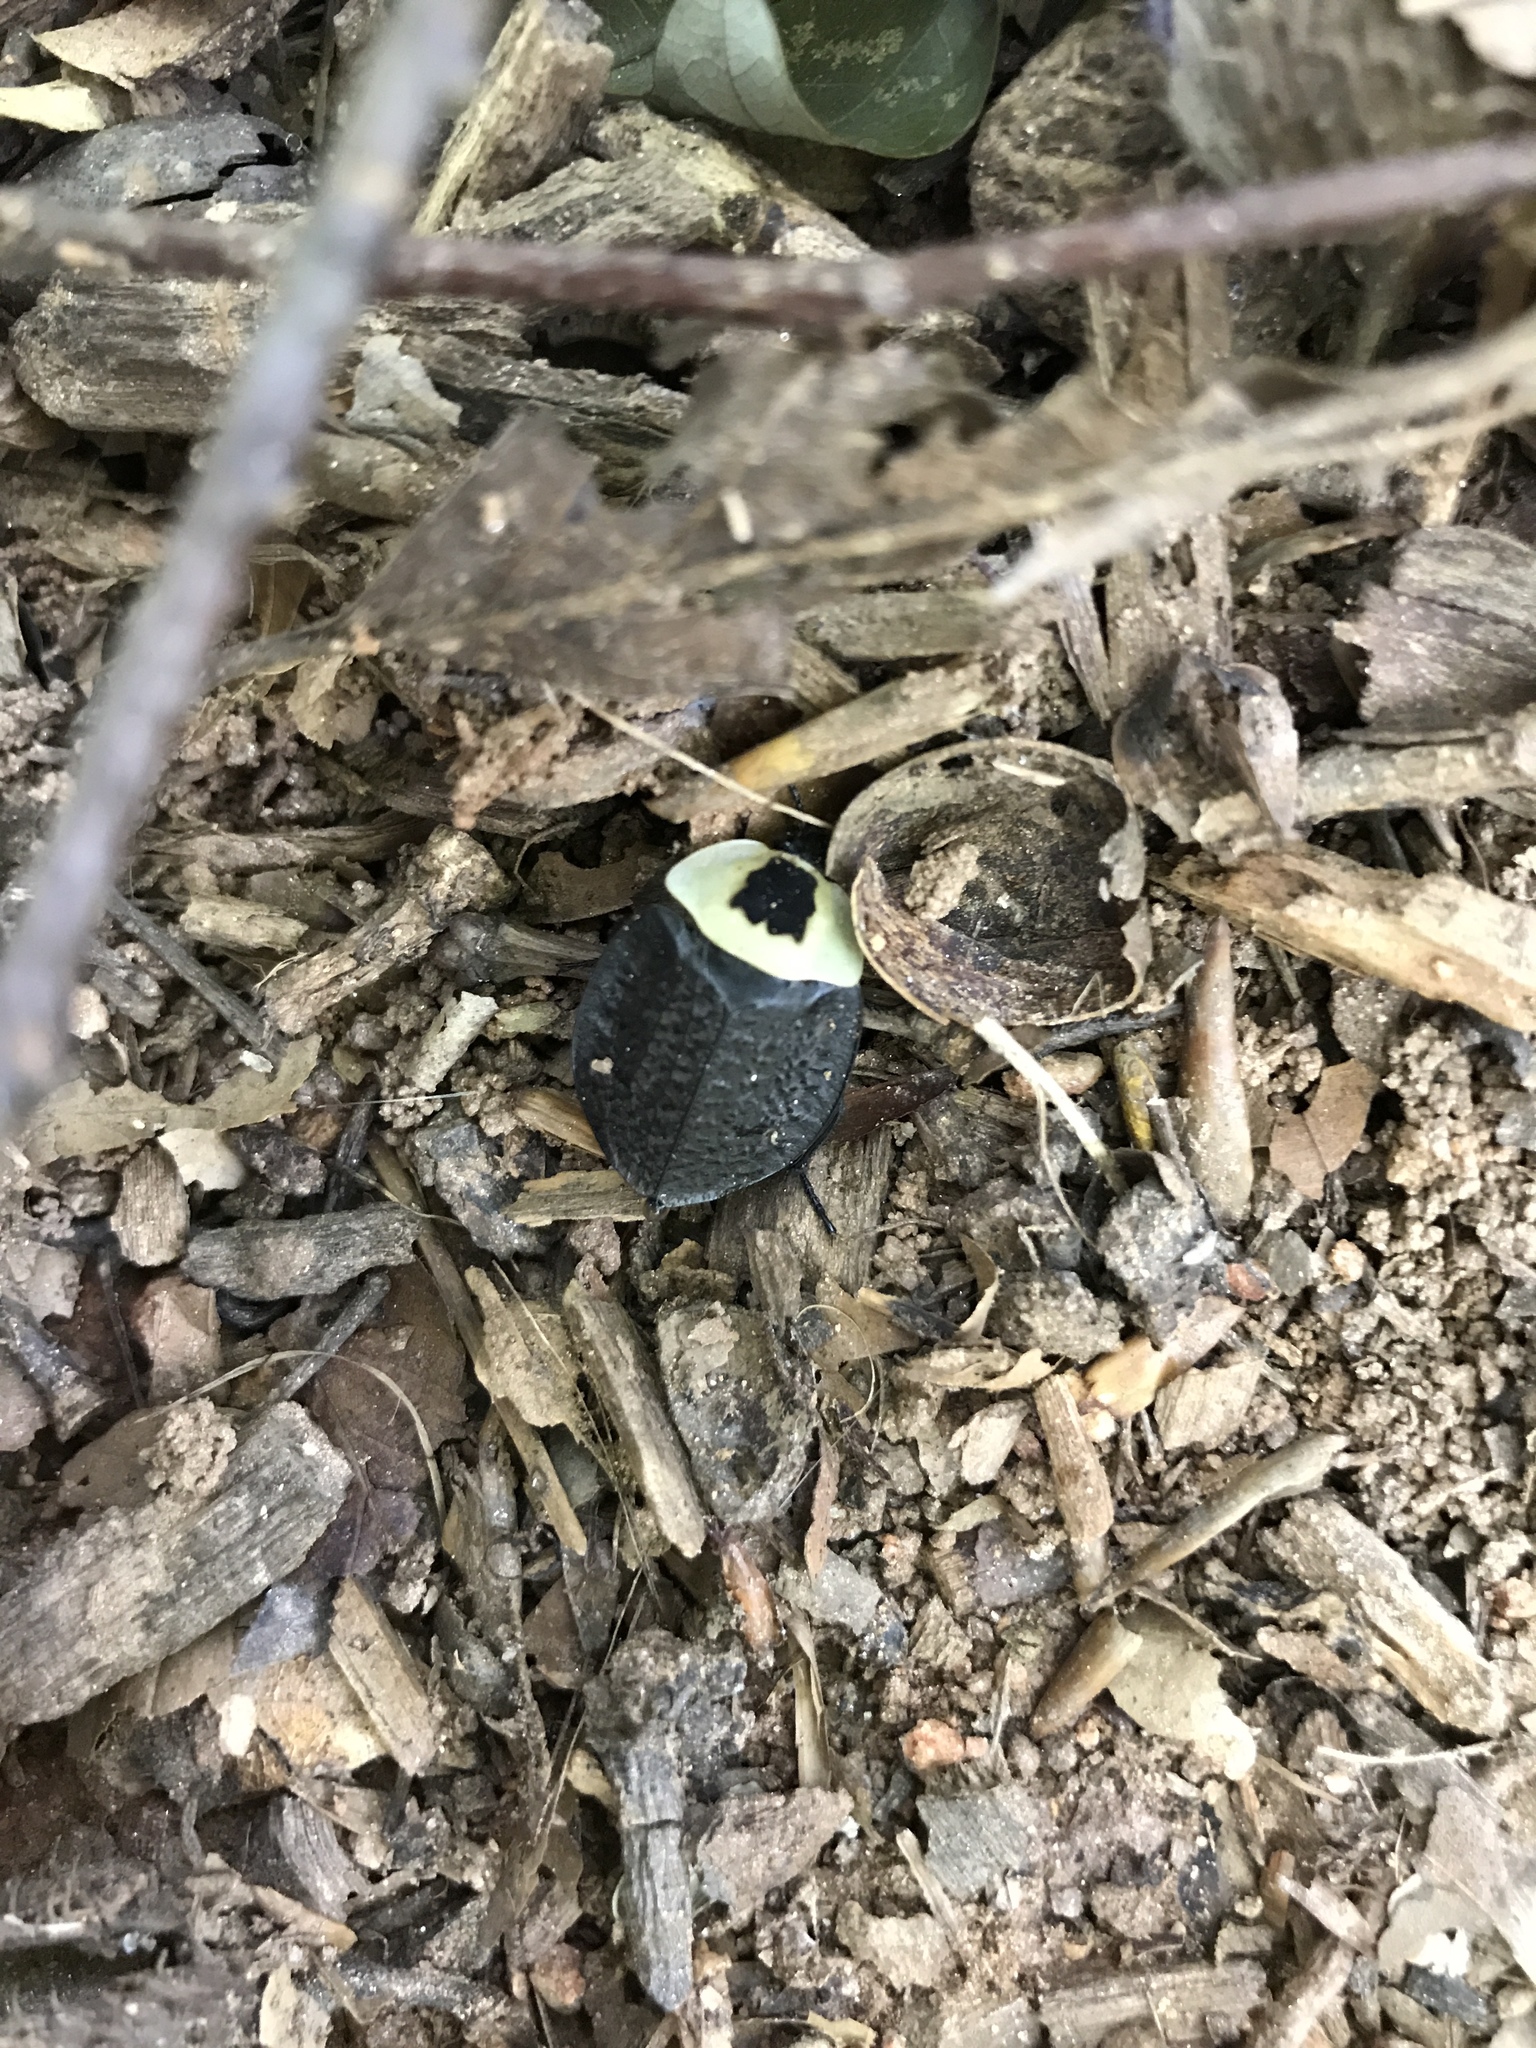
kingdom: Animalia
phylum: Arthropoda
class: Insecta
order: Coleoptera
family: Staphylinidae
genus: Necrophila
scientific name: Necrophila americana
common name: American carrion beetle
